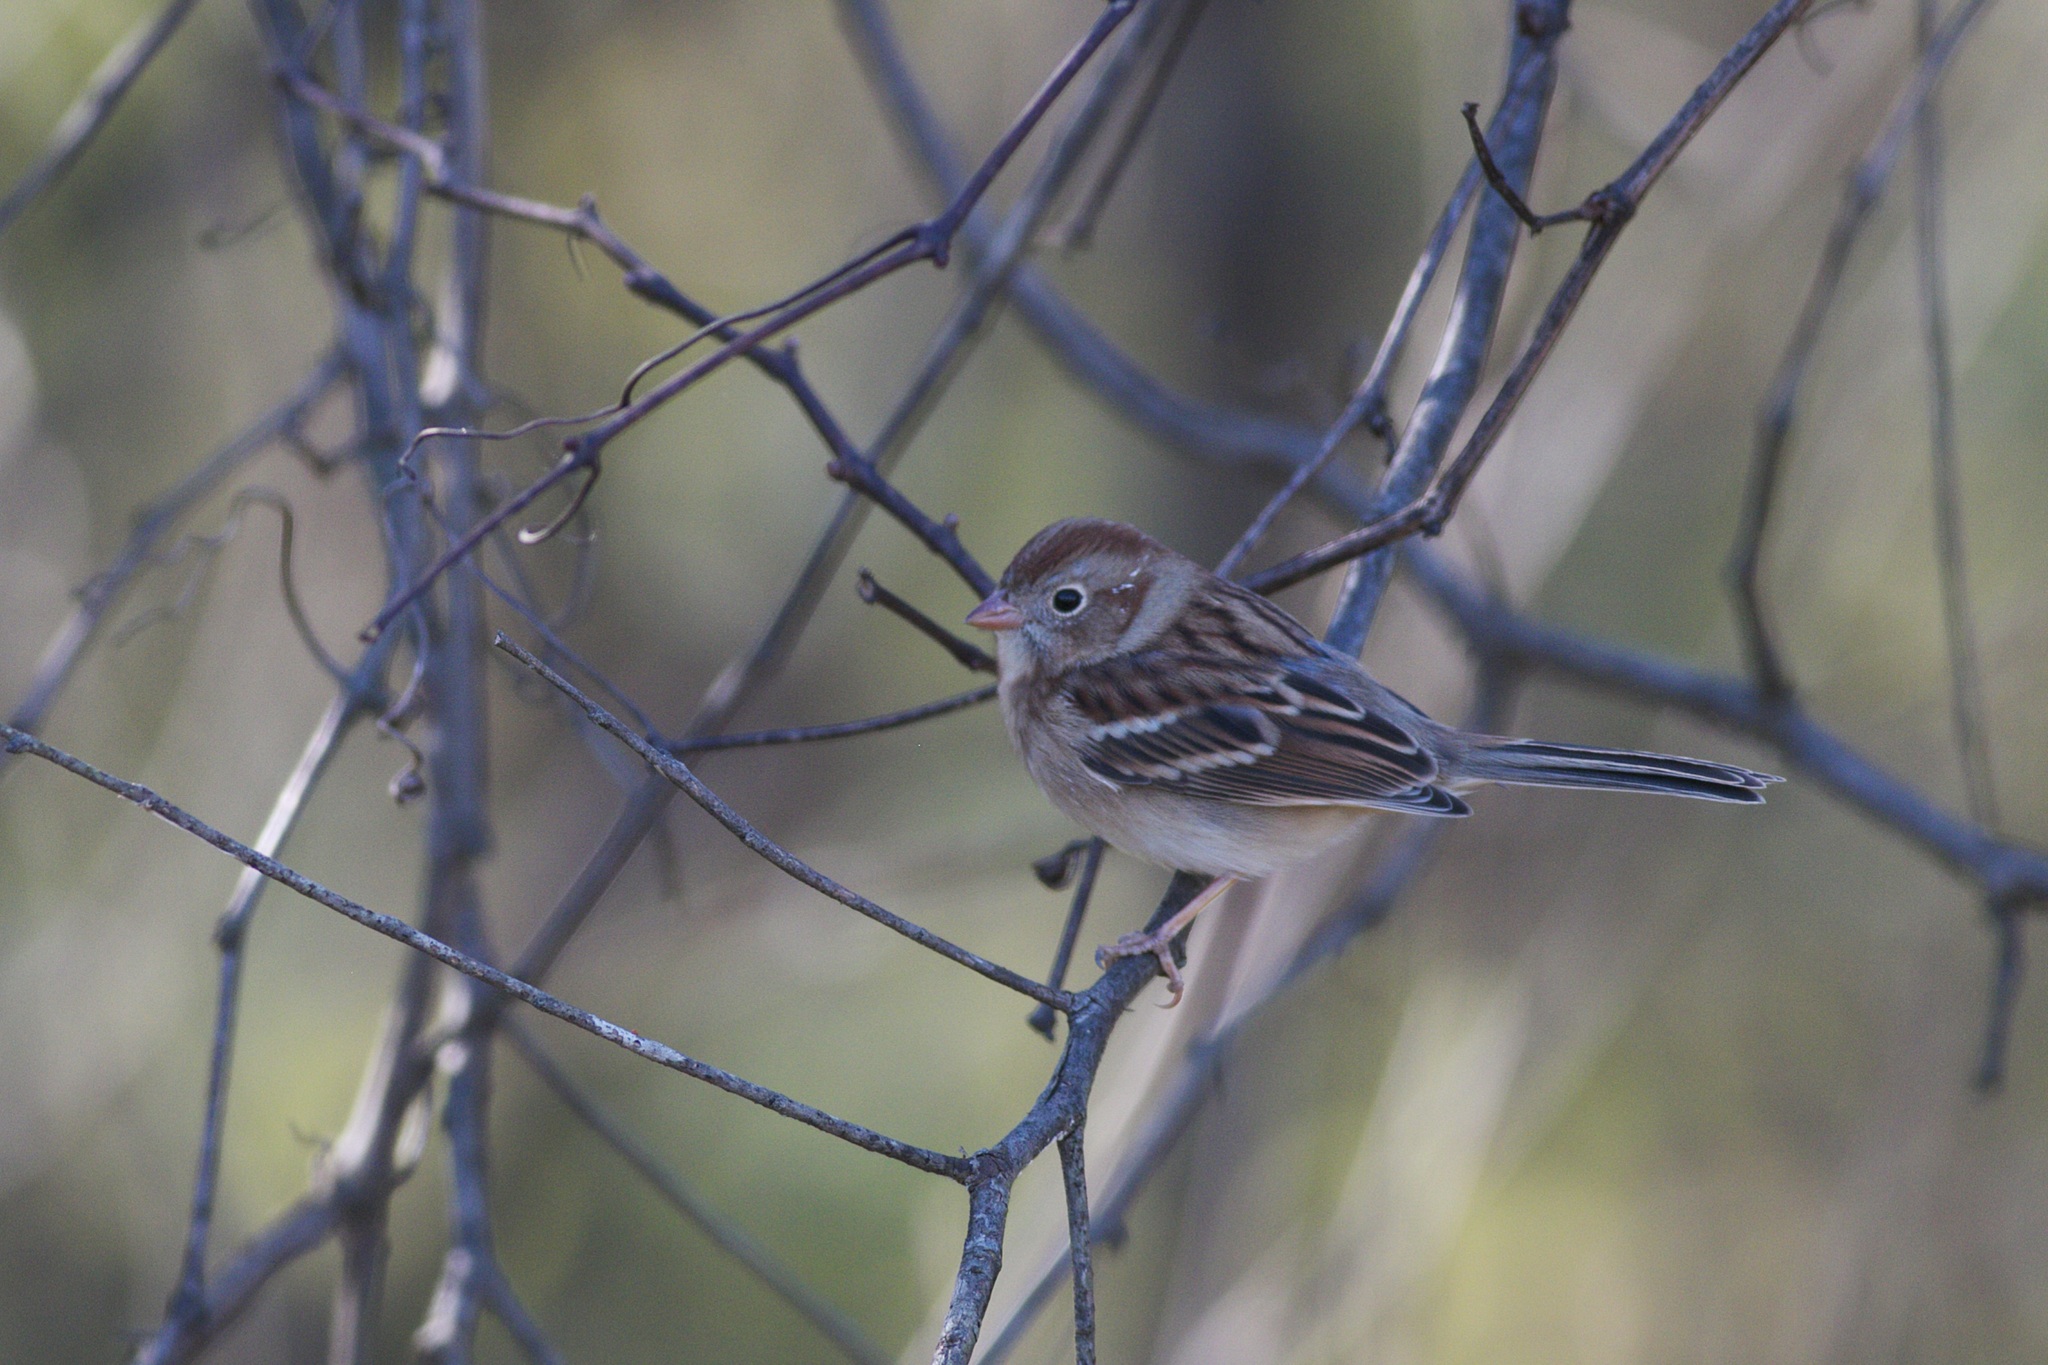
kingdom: Animalia
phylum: Chordata
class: Aves
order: Passeriformes
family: Passerellidae
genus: Spizella
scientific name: Spizella pusilla
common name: Field sparrow
